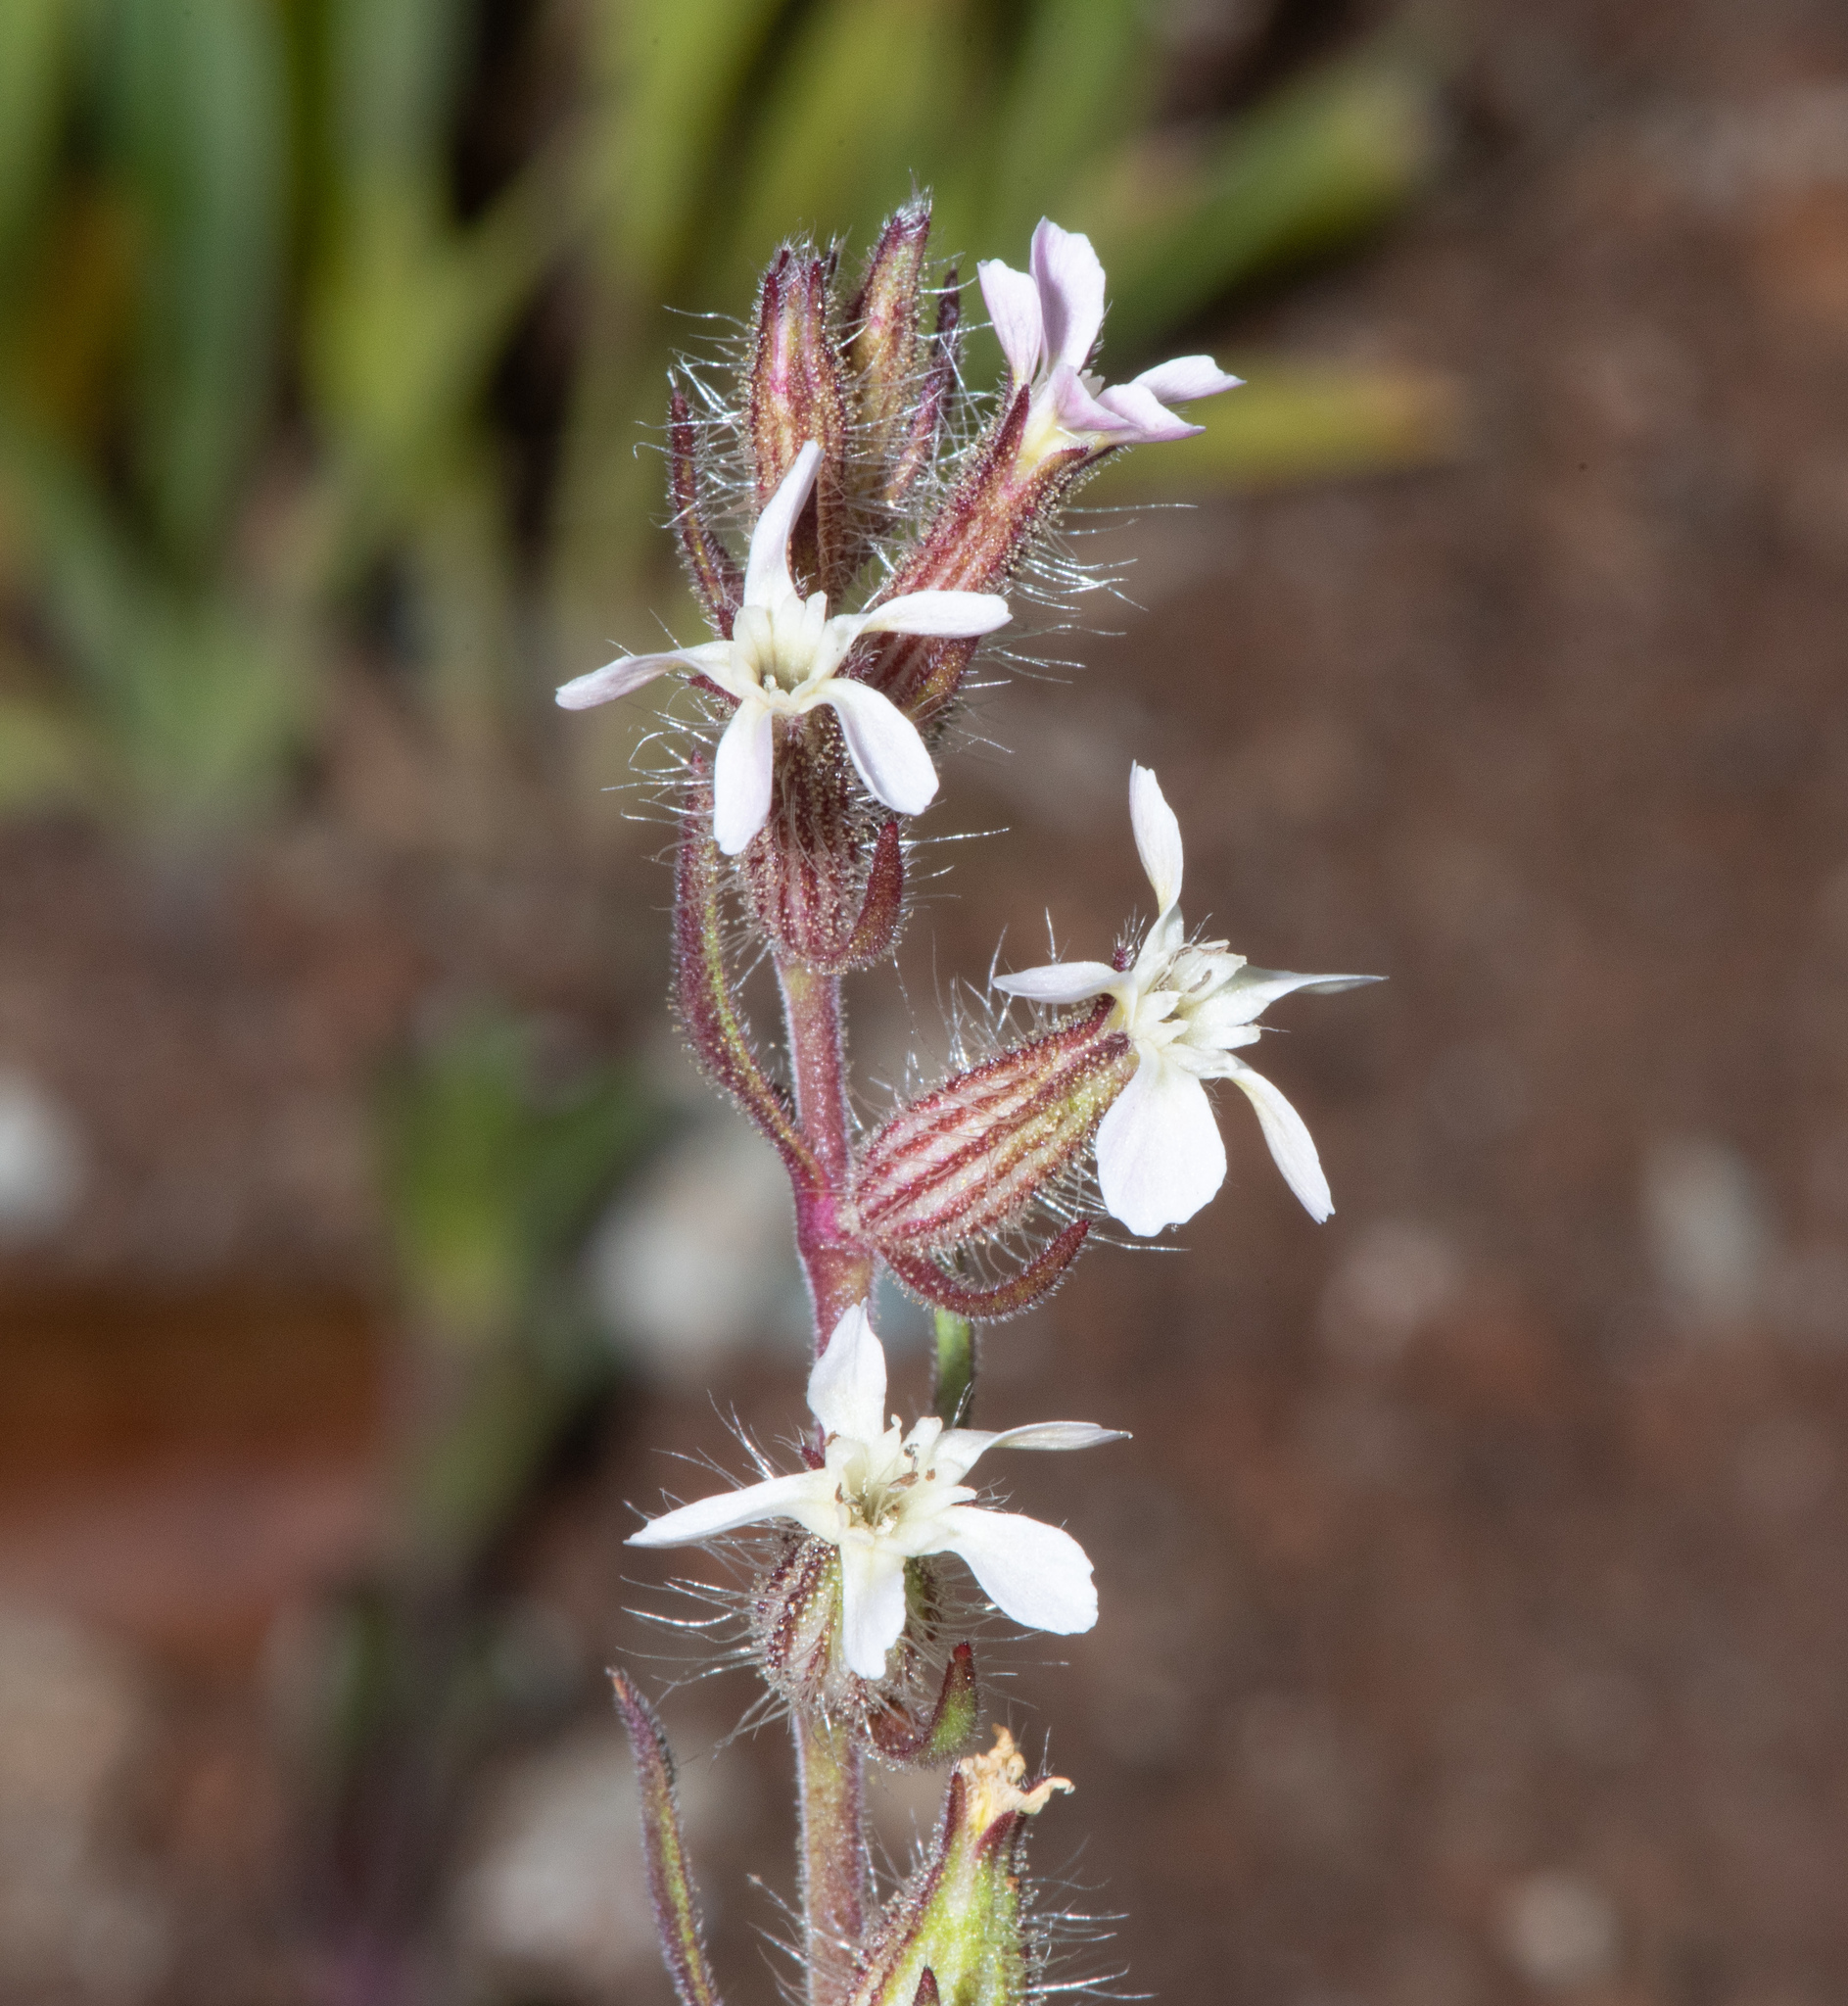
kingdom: Plantae
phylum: Tracheophyta
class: Magnoliopsida
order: Caryophyllales
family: Caryophyllaceae
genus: Silene
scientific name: Silene gallica
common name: Small-flowered catchfly
